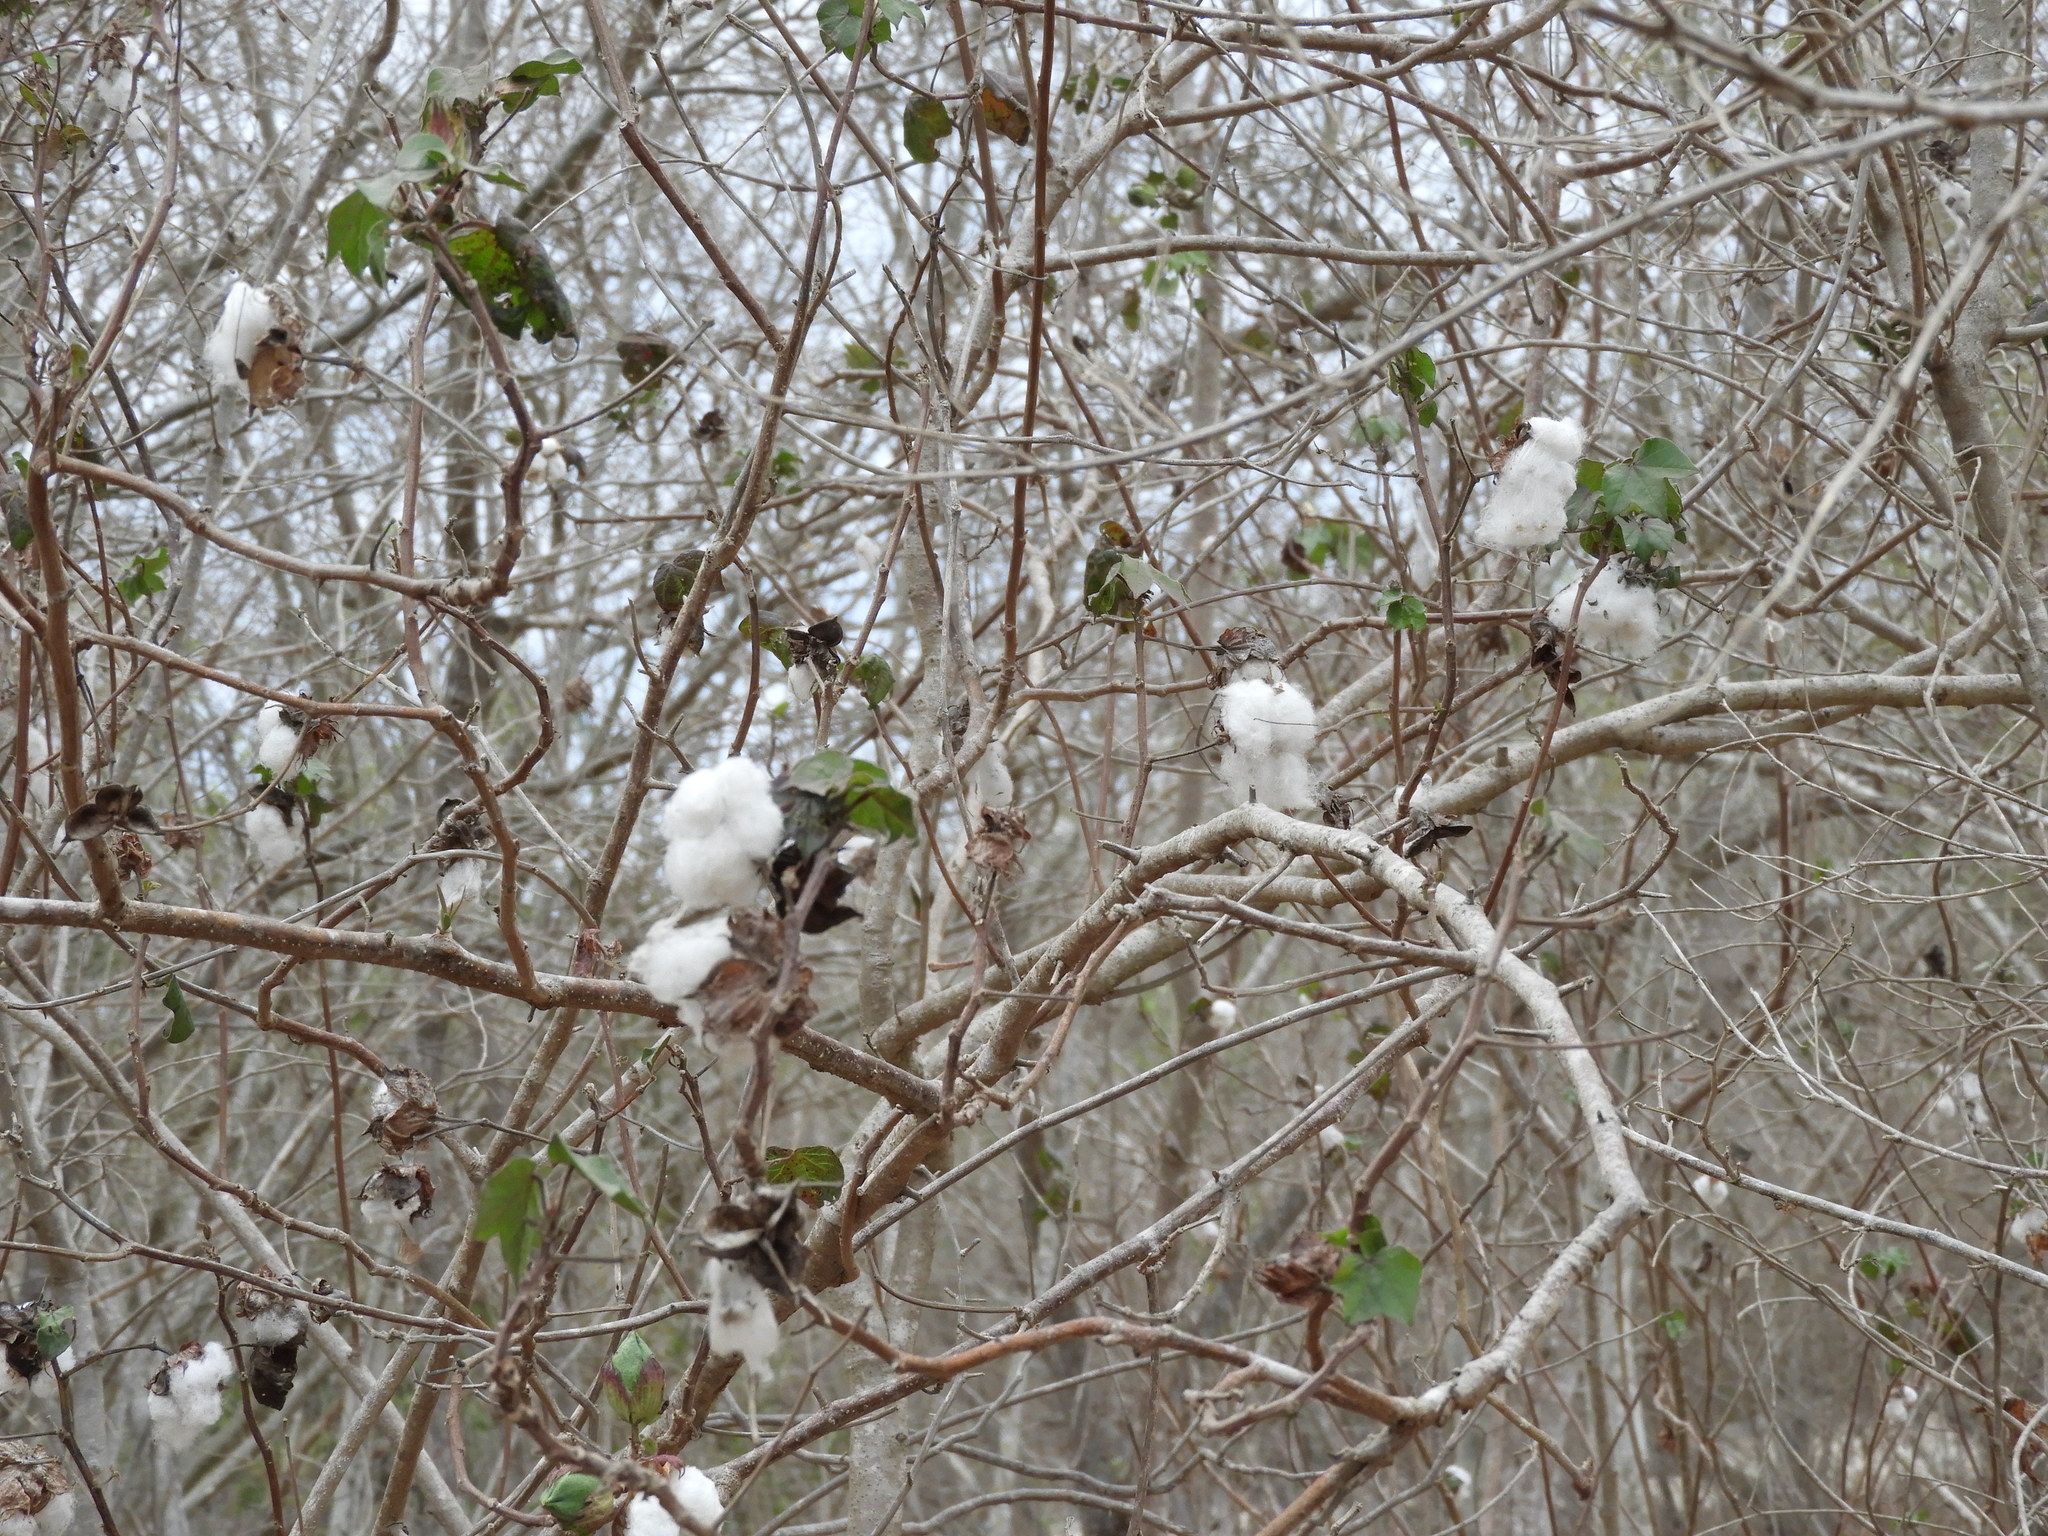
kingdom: Plantae
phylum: Tracheophyta
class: Magnoliopsida
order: Malvales
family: Malvaceae
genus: Gossypium
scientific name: Gossypium hirsutum
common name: Cotton
